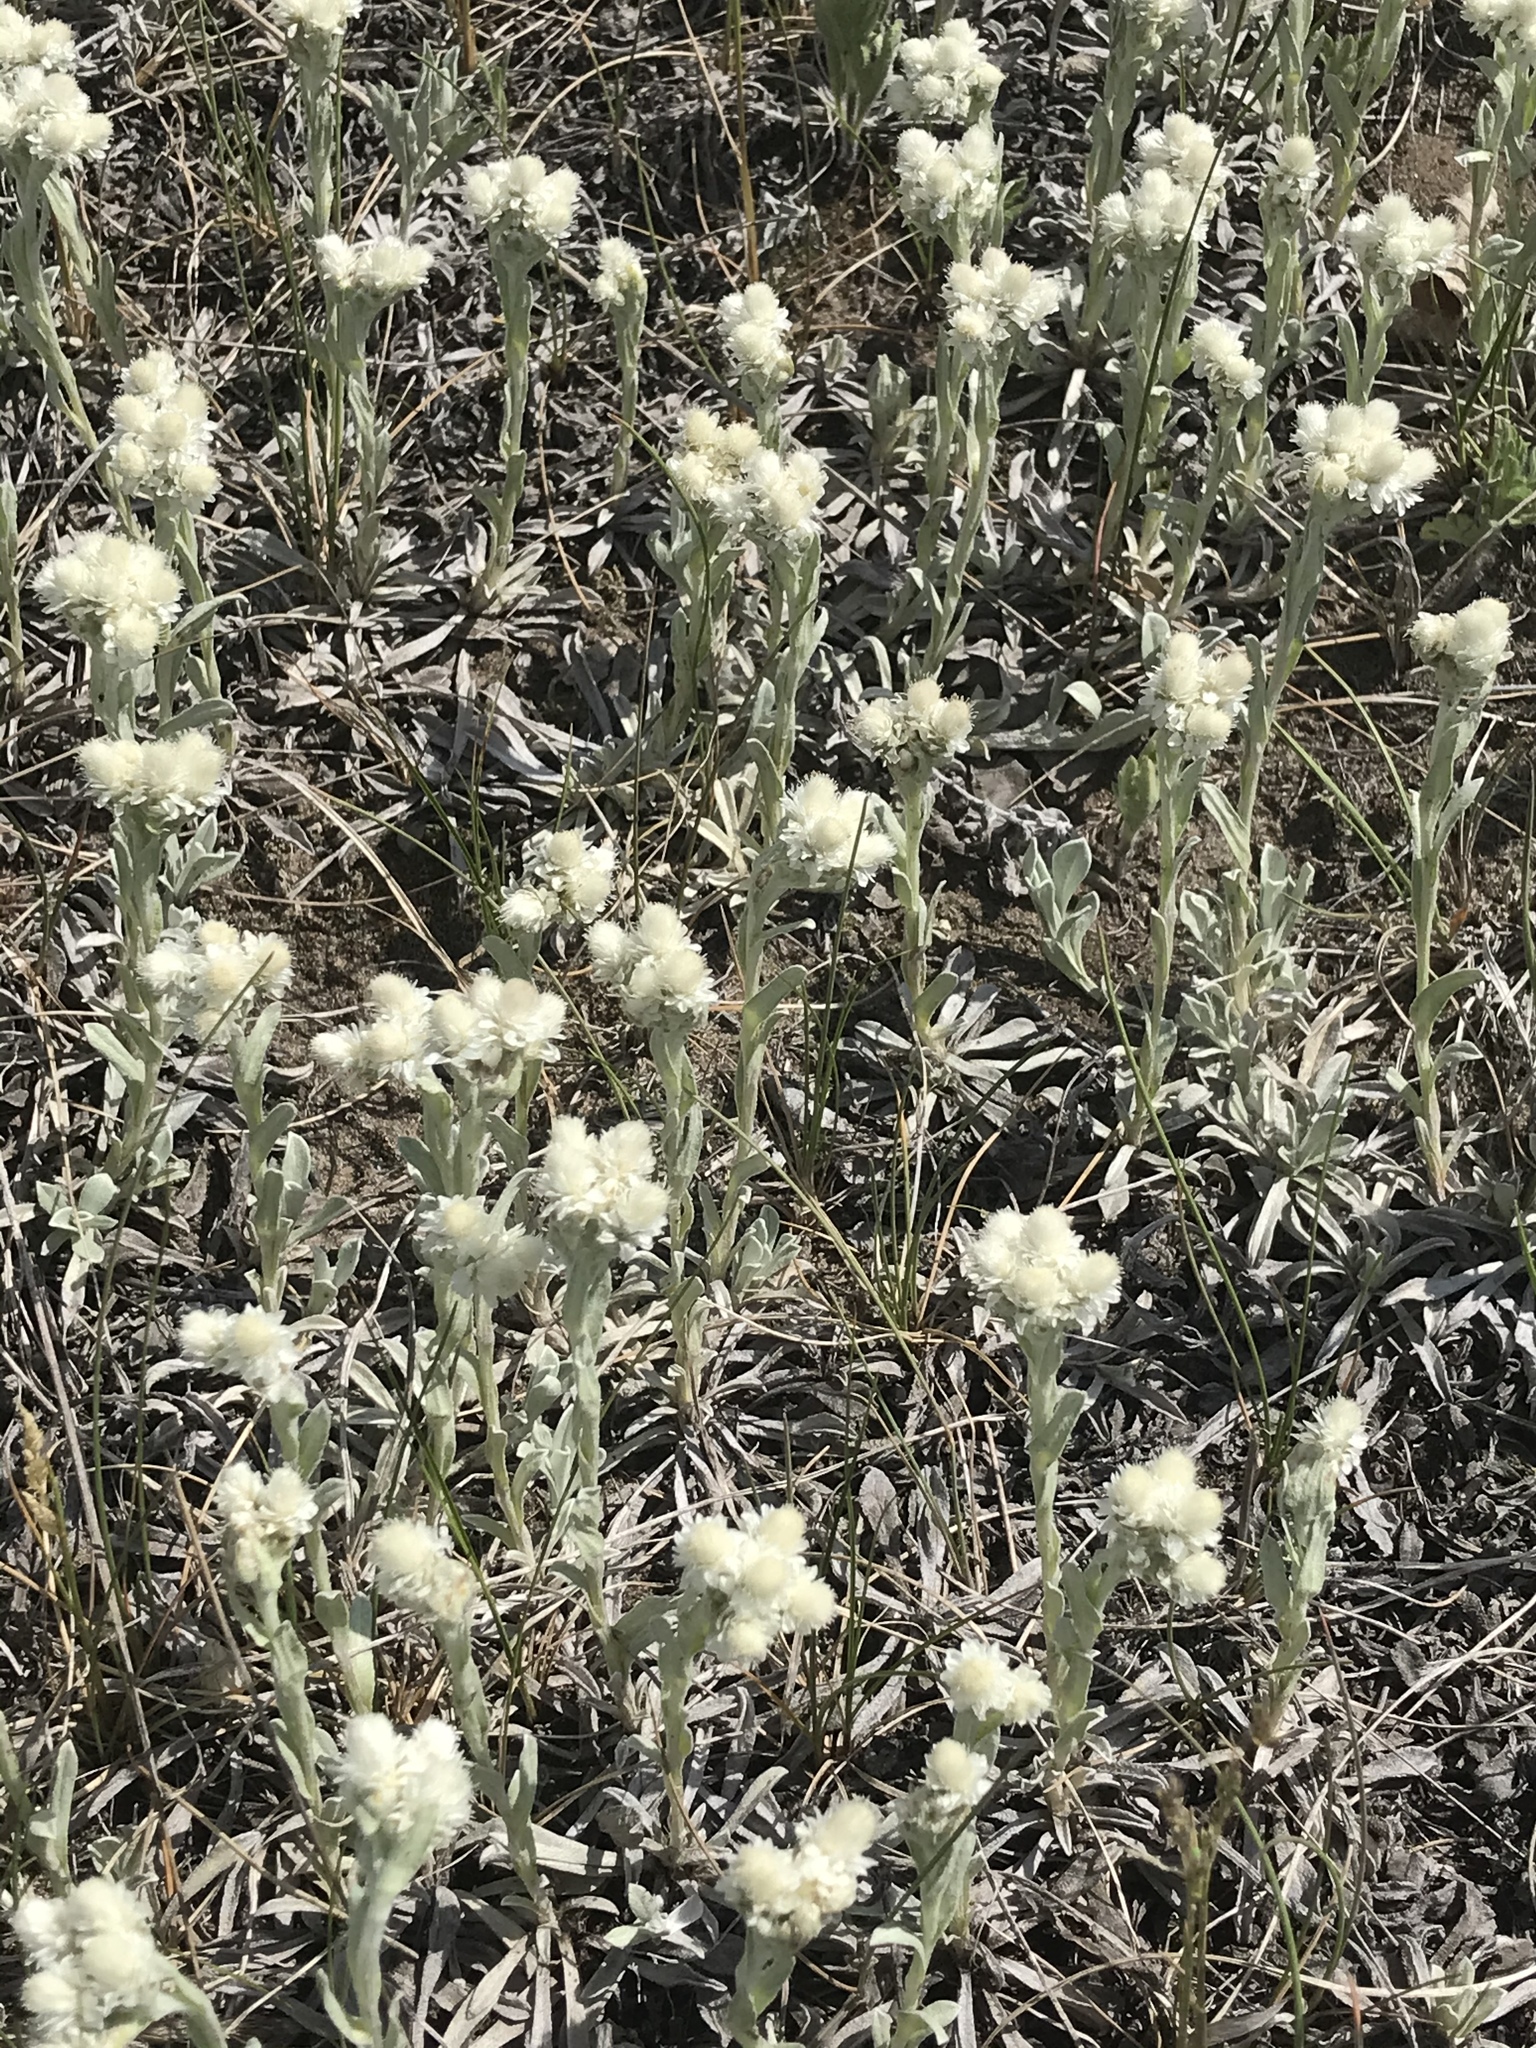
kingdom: Plantae
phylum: Tracheophyta
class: Magnoliopsida
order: Asterales
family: Asteraceae
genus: Antennaria
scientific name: Antennaria parvifolia
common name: Nuttall's pussytoes
